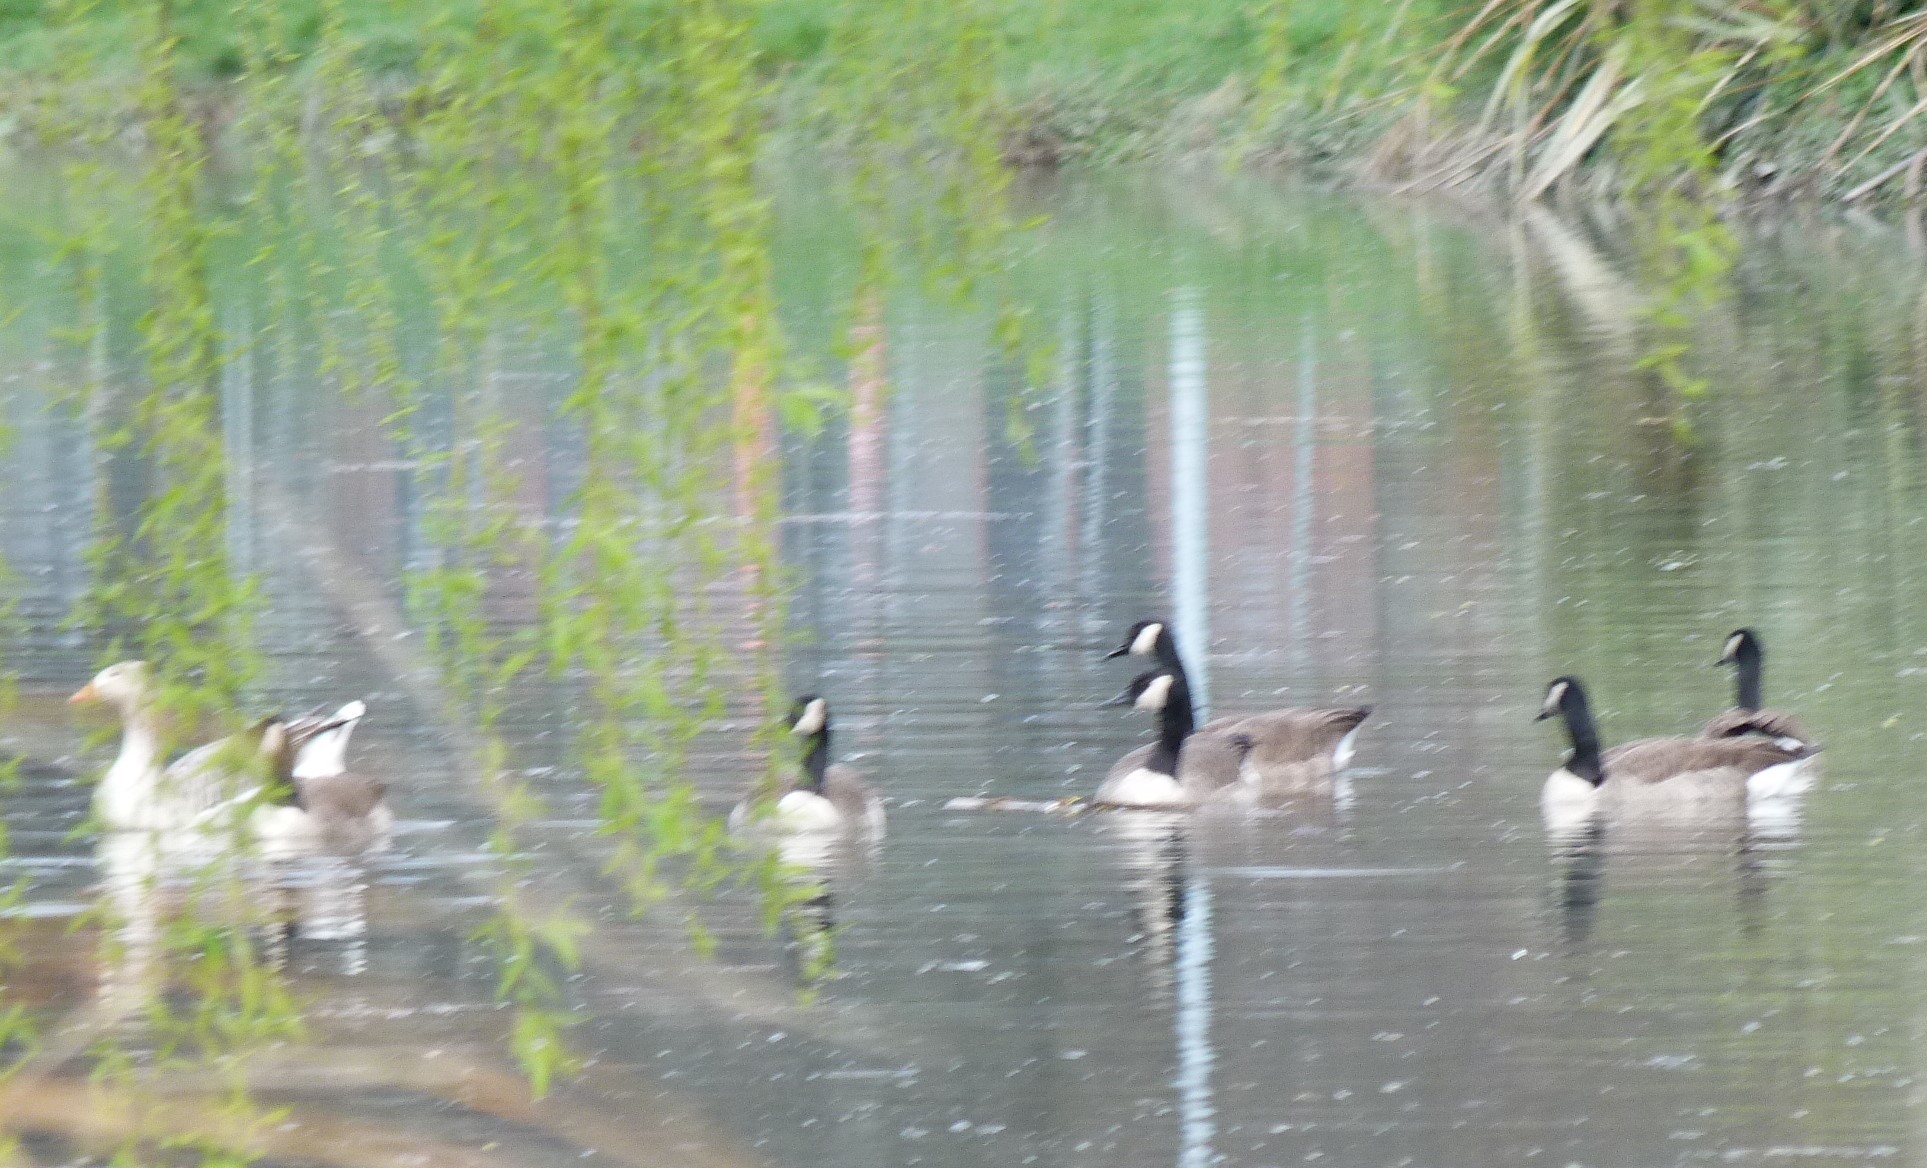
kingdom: Animalia
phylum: Chordata
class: Aves
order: Anseriformes
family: Anatidae
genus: Branta
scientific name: Branta canadensis
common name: Canada goose
